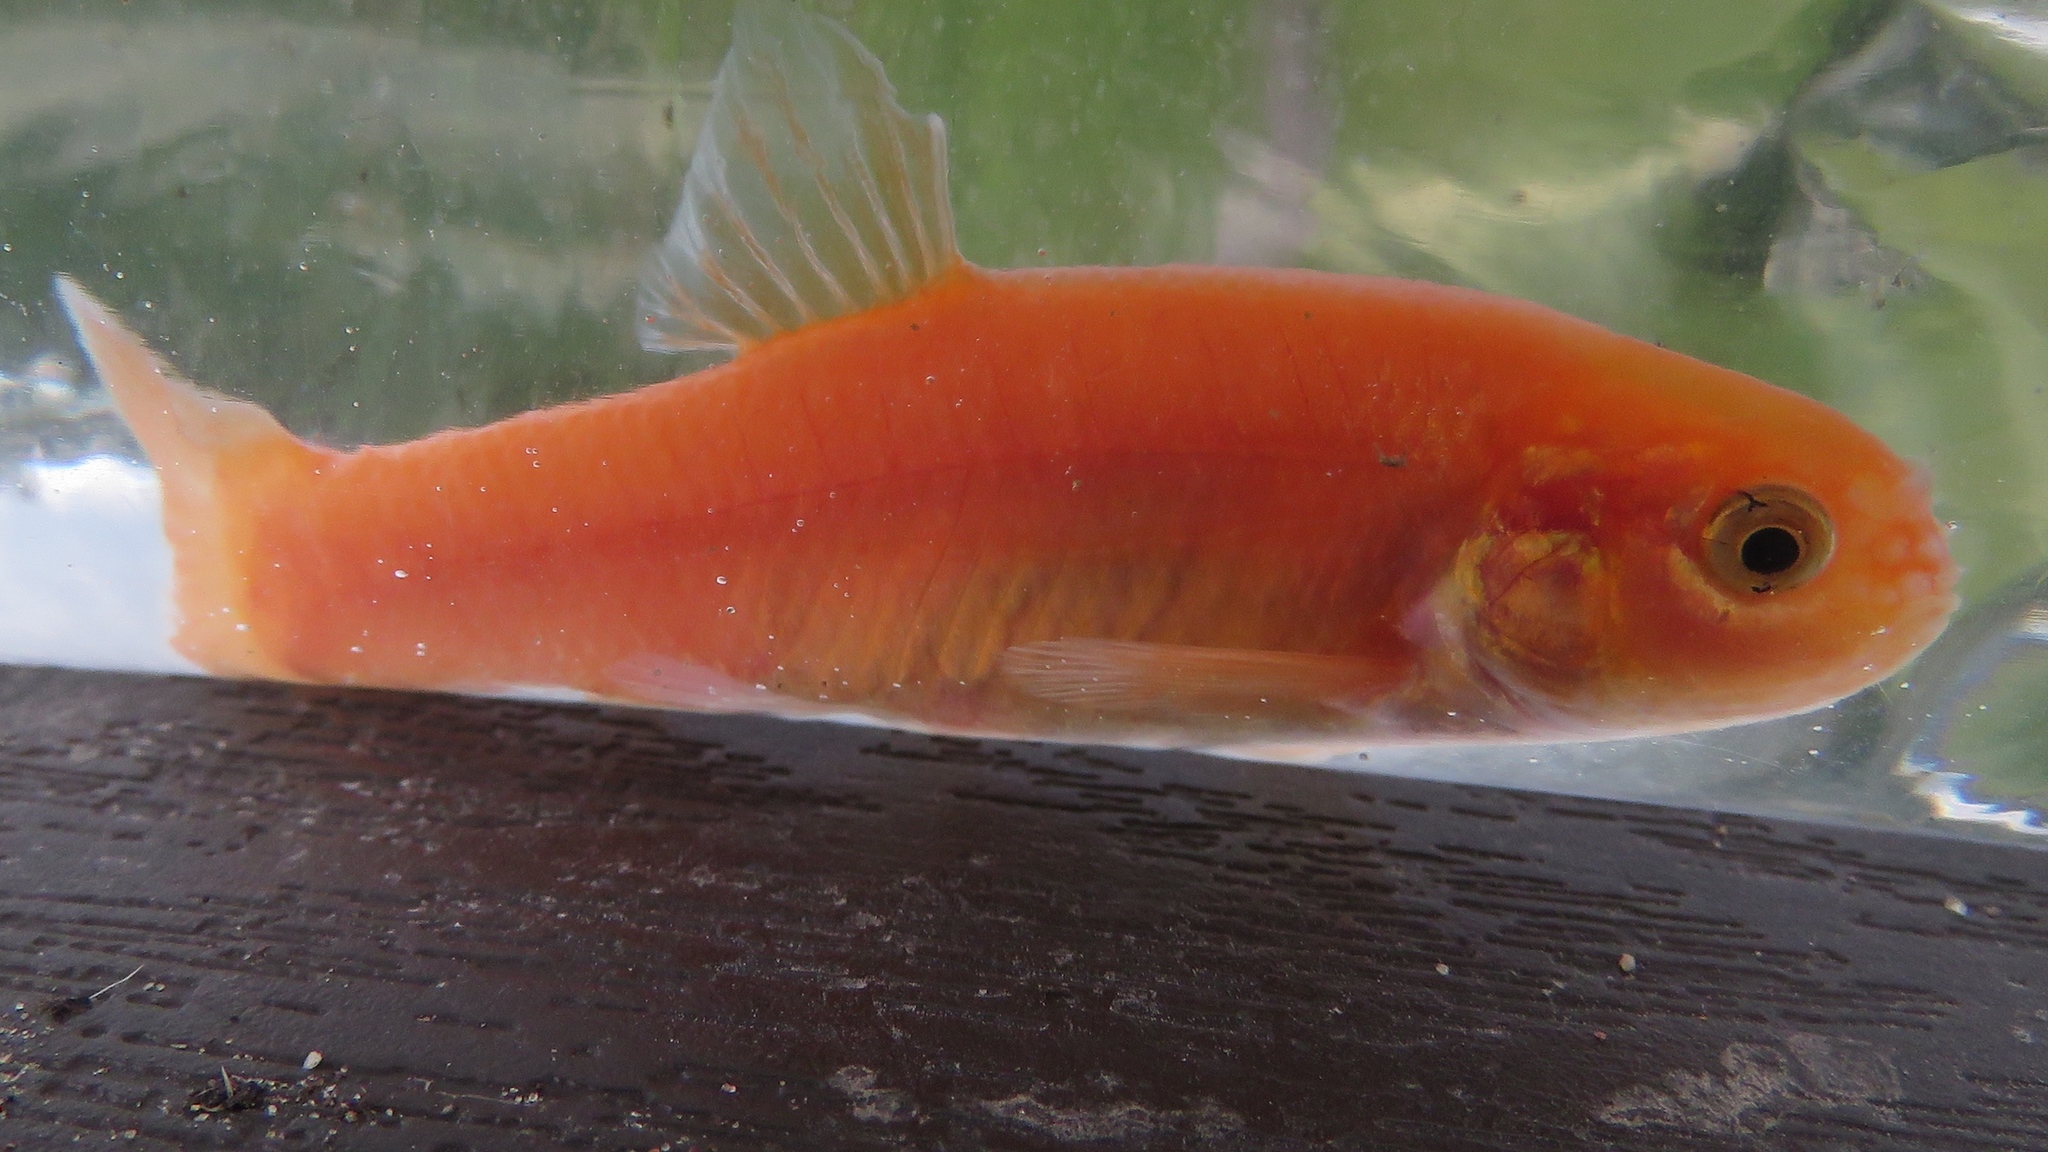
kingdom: Animalia
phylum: Chordata
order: Cypriniformes
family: Cyprinidae
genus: Pimephales
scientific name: Pimephales promelas
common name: Fathead minnow
